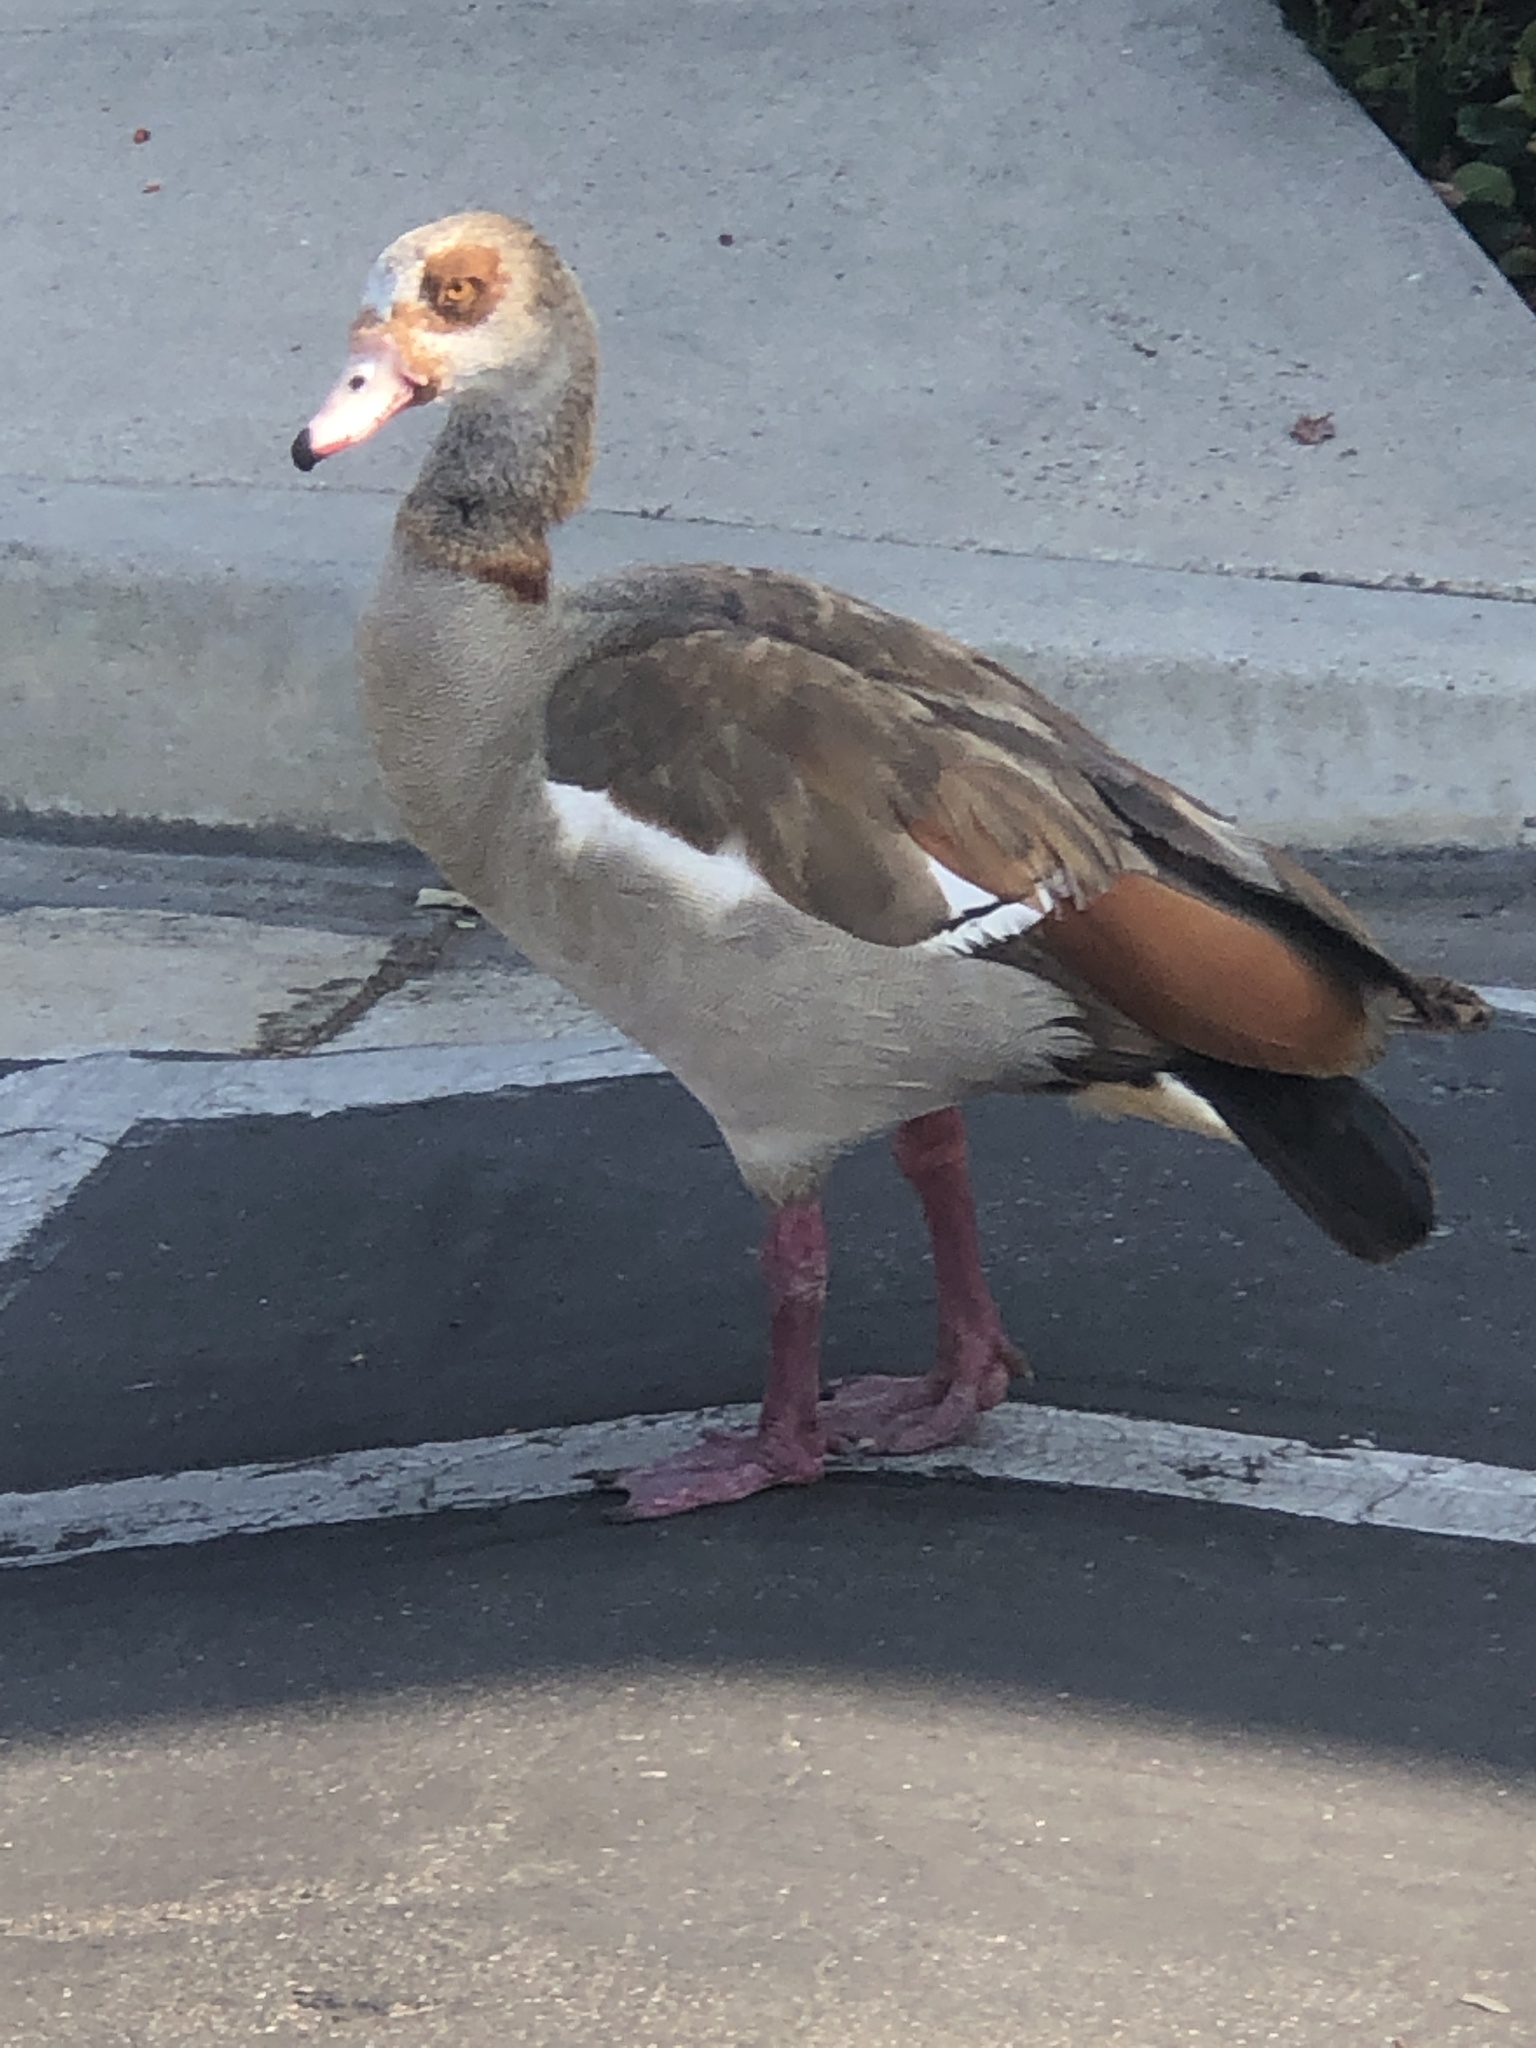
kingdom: Animalia
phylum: Chordata
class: Aves
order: Anseriformes
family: Anatidae
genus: Alopochen
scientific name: Alopochen aegyptiaca
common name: Egyptian goose
